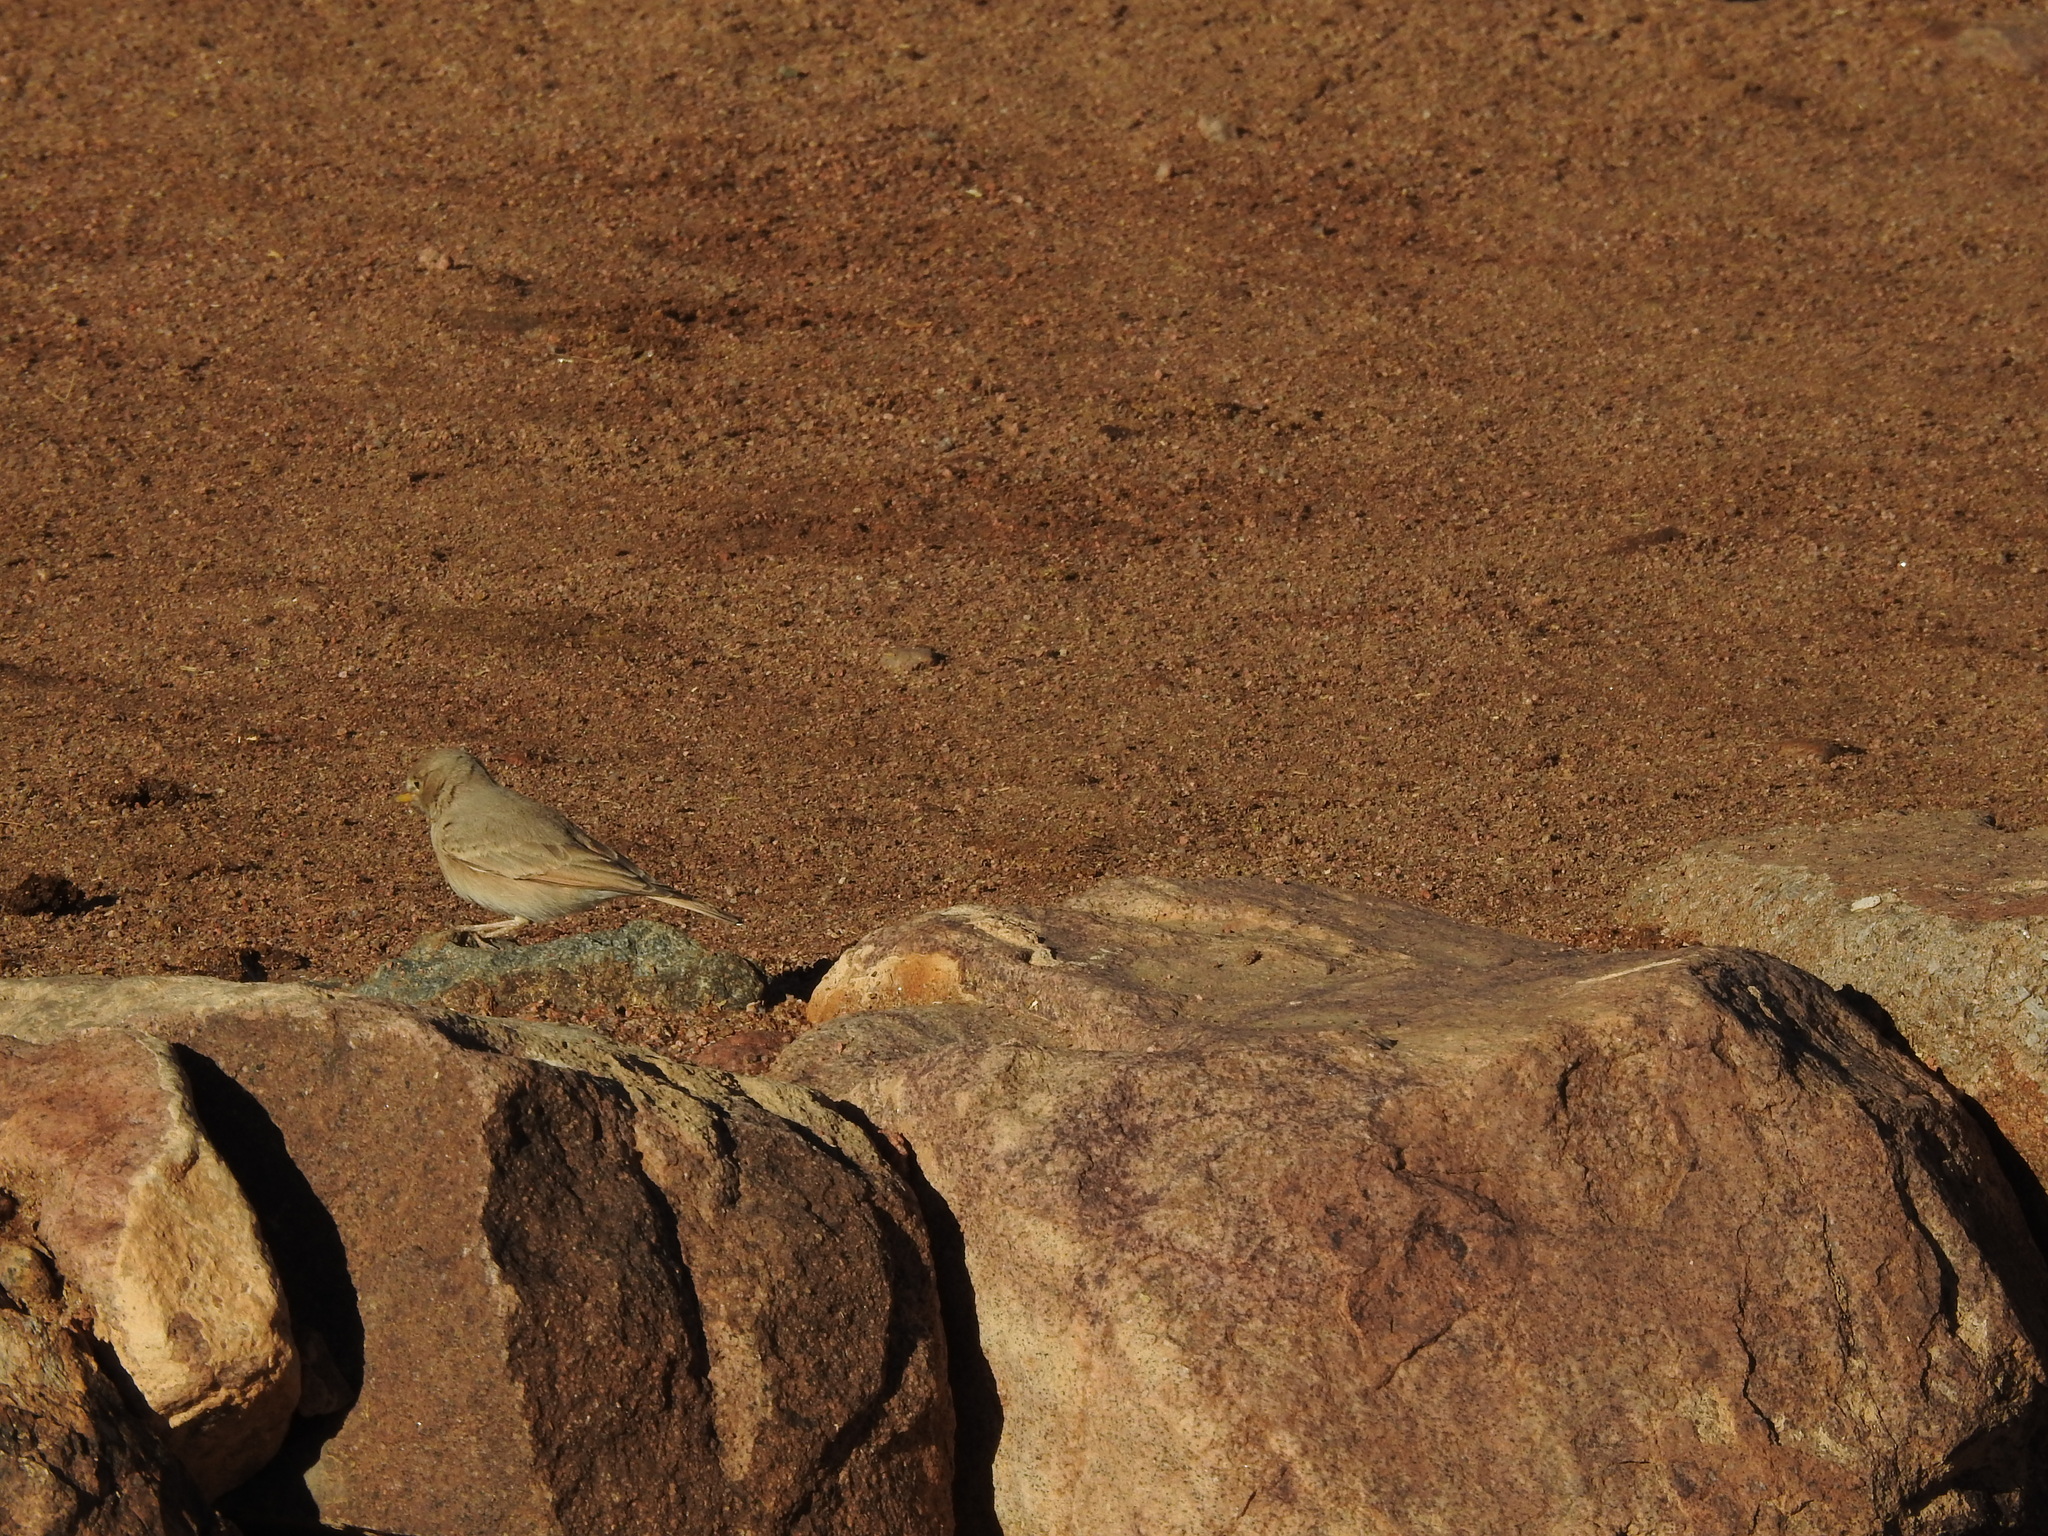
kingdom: Animalia
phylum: Chordata
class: Aves
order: Passeriformes
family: Alaudidae
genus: Ammomanes
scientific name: Ammomanes deserti
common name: Desert lark
